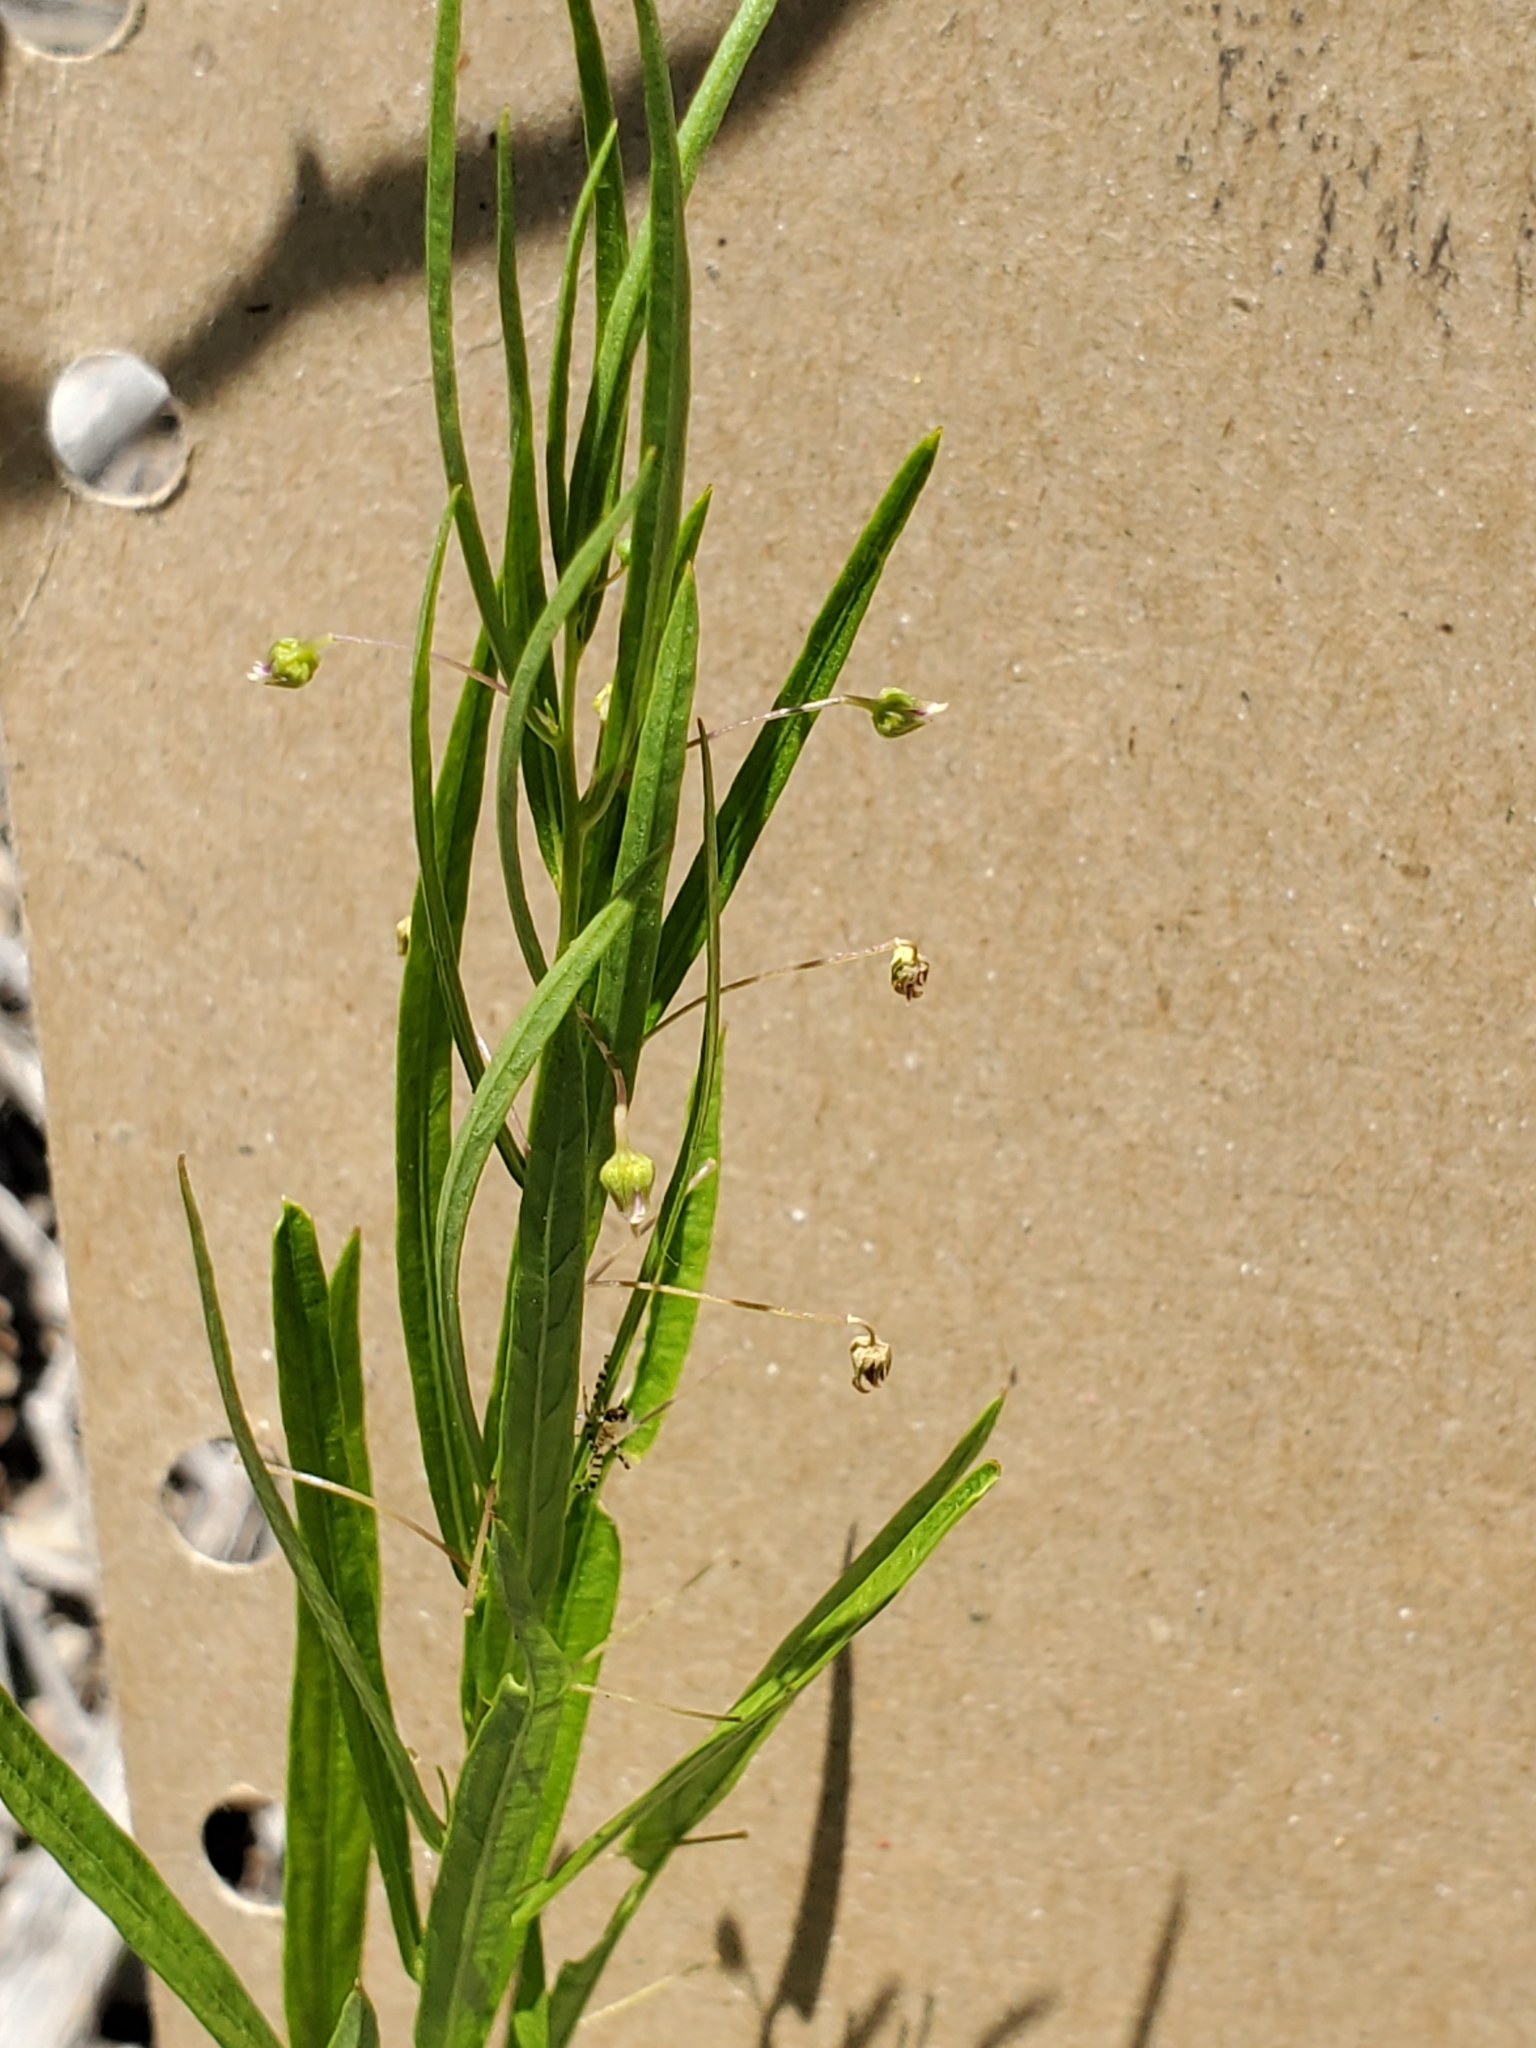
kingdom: Plantae
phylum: Tracheophyta
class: Magnoliopsida
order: Malpighiales
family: Violaceae
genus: Pombalia
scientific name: Pombalia verticillata
